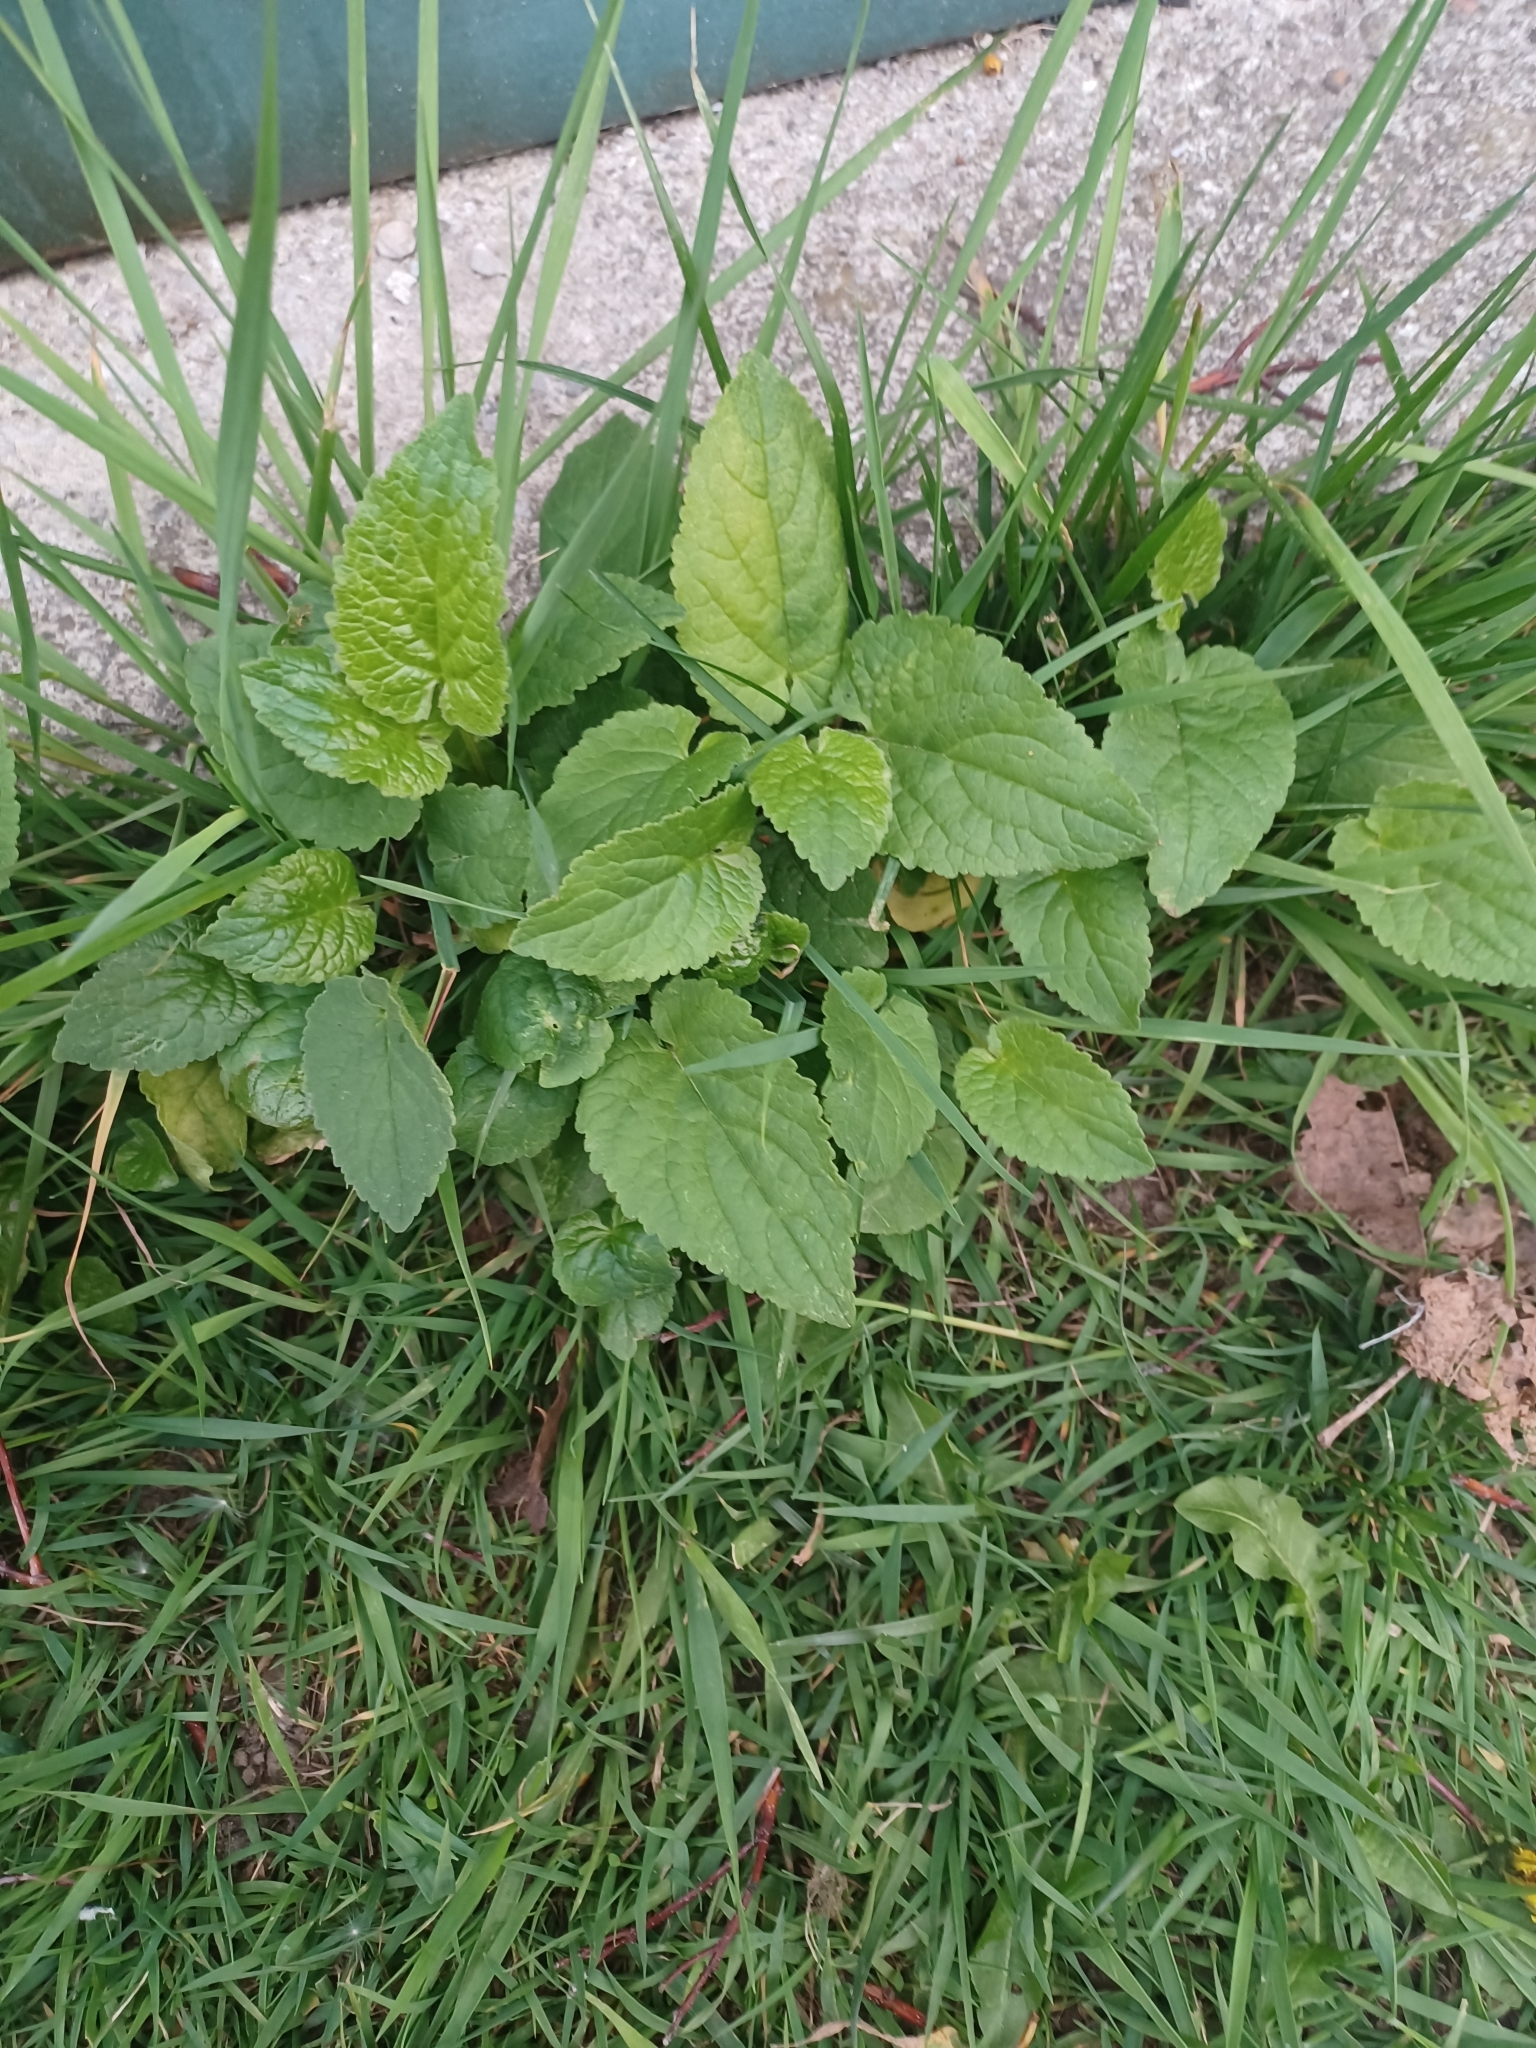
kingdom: Plantae
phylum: Tracheophyta
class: Magnoliopsida
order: Asterales
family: Campanulaceae
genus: Campanula
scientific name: Campanula rapunculoides
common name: Creeping bellflower
